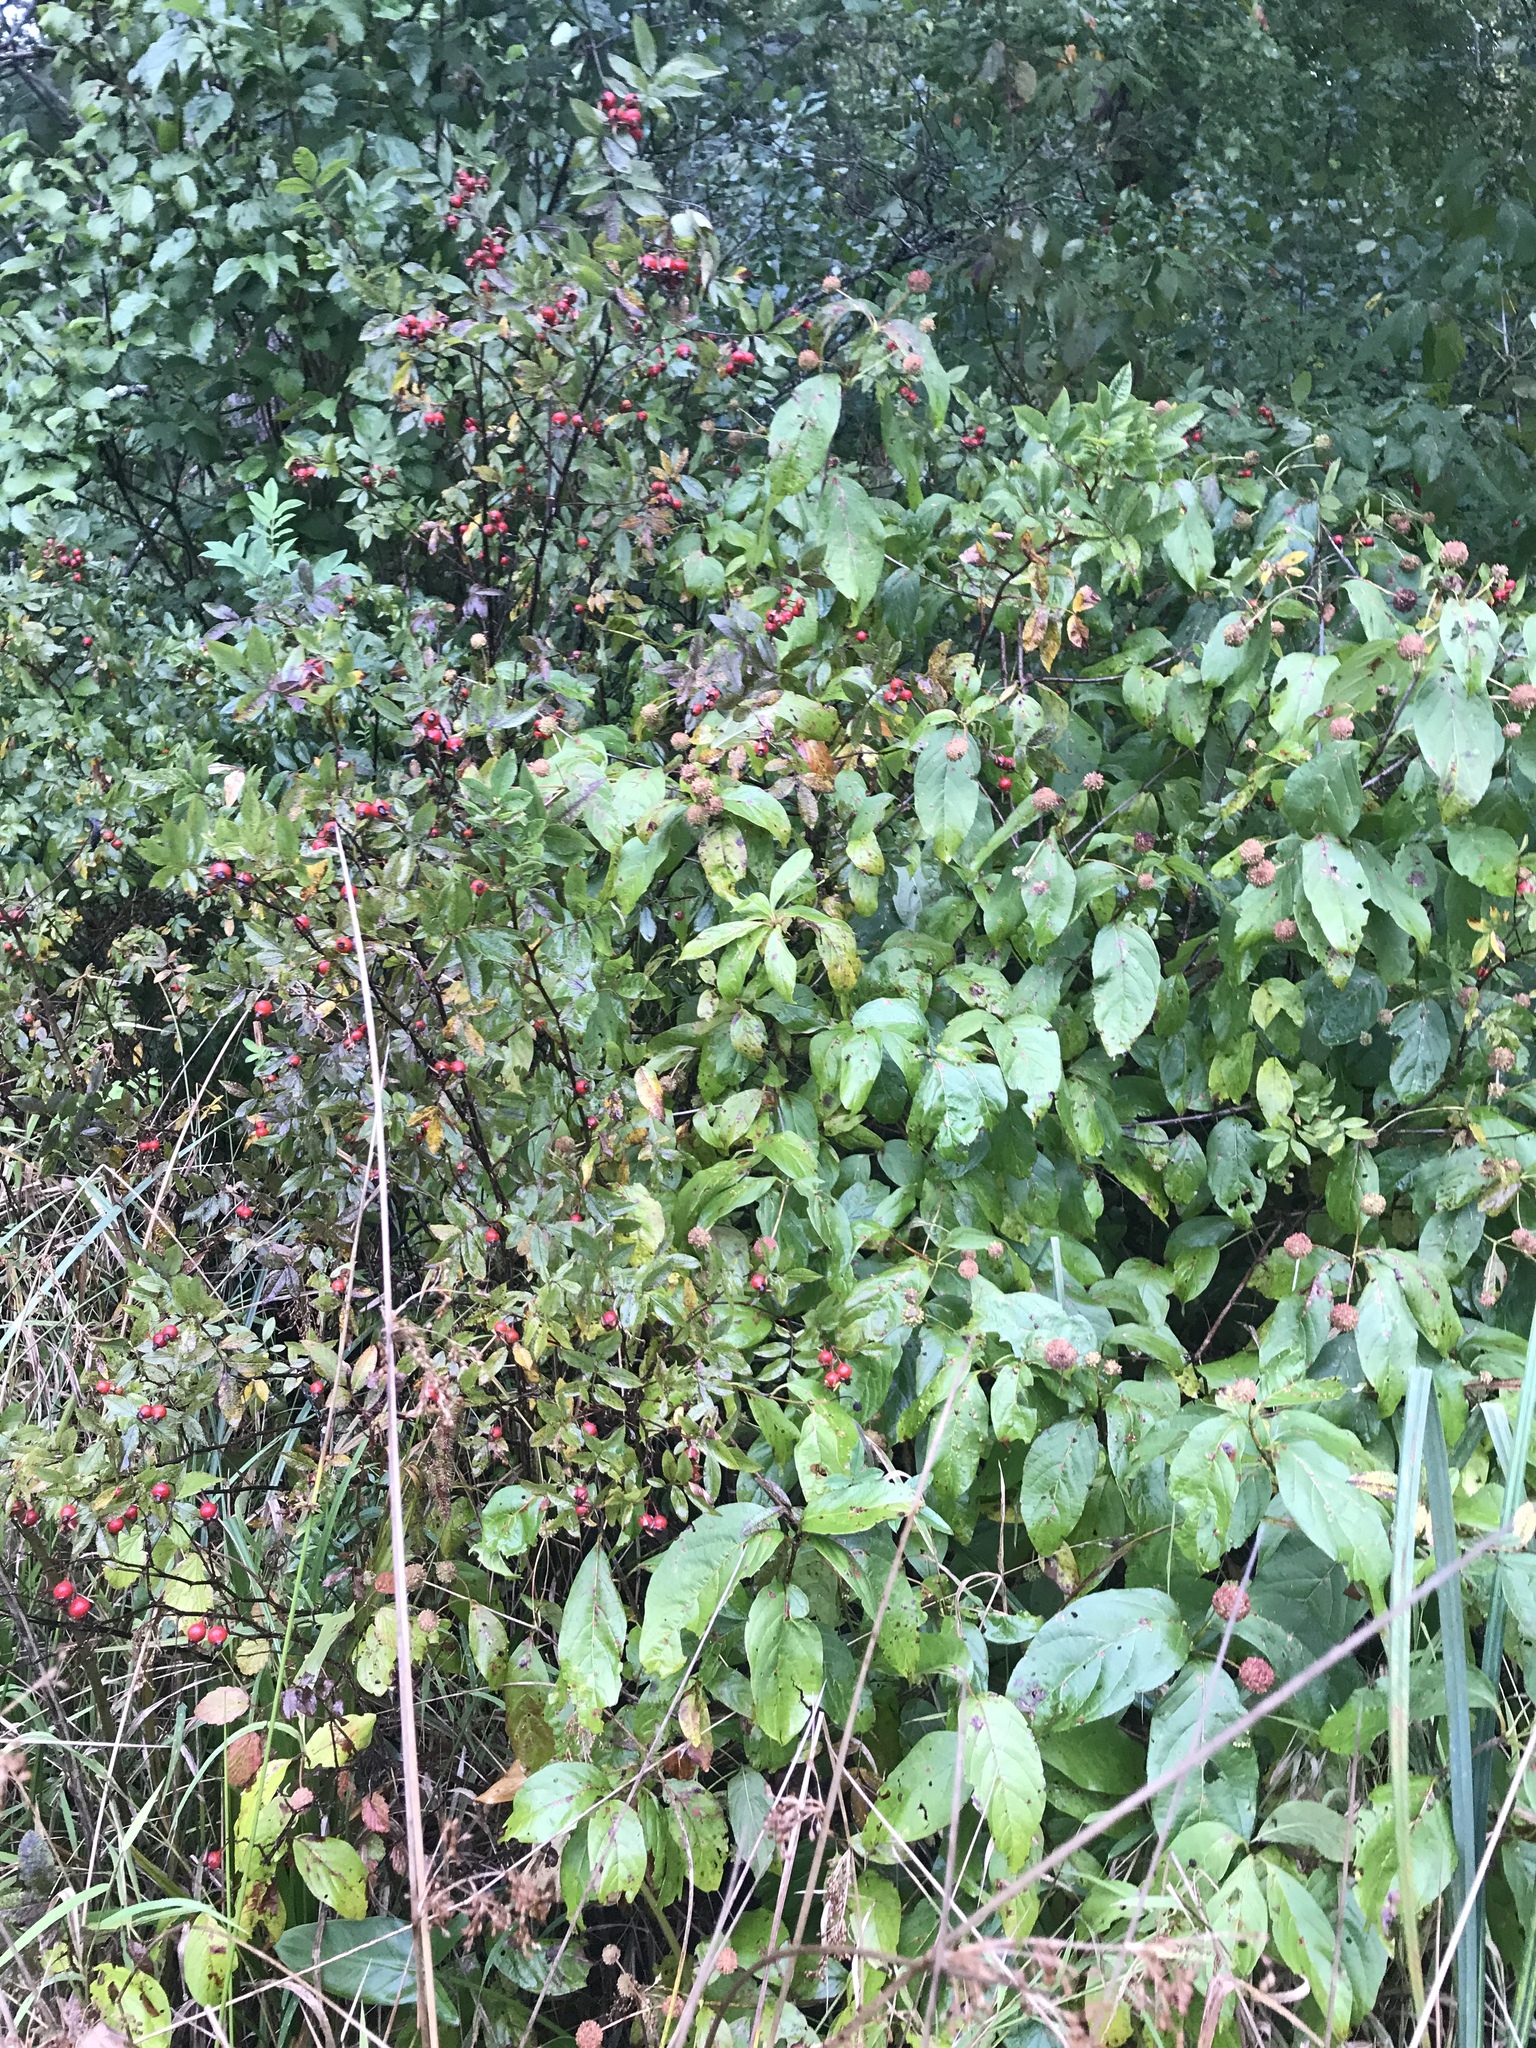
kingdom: Plantae
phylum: Tracheophyta
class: Magnoliopsida
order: Rosales
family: Rosaceae
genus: Rosa
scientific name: Rosa palustris
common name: Swamp rose
